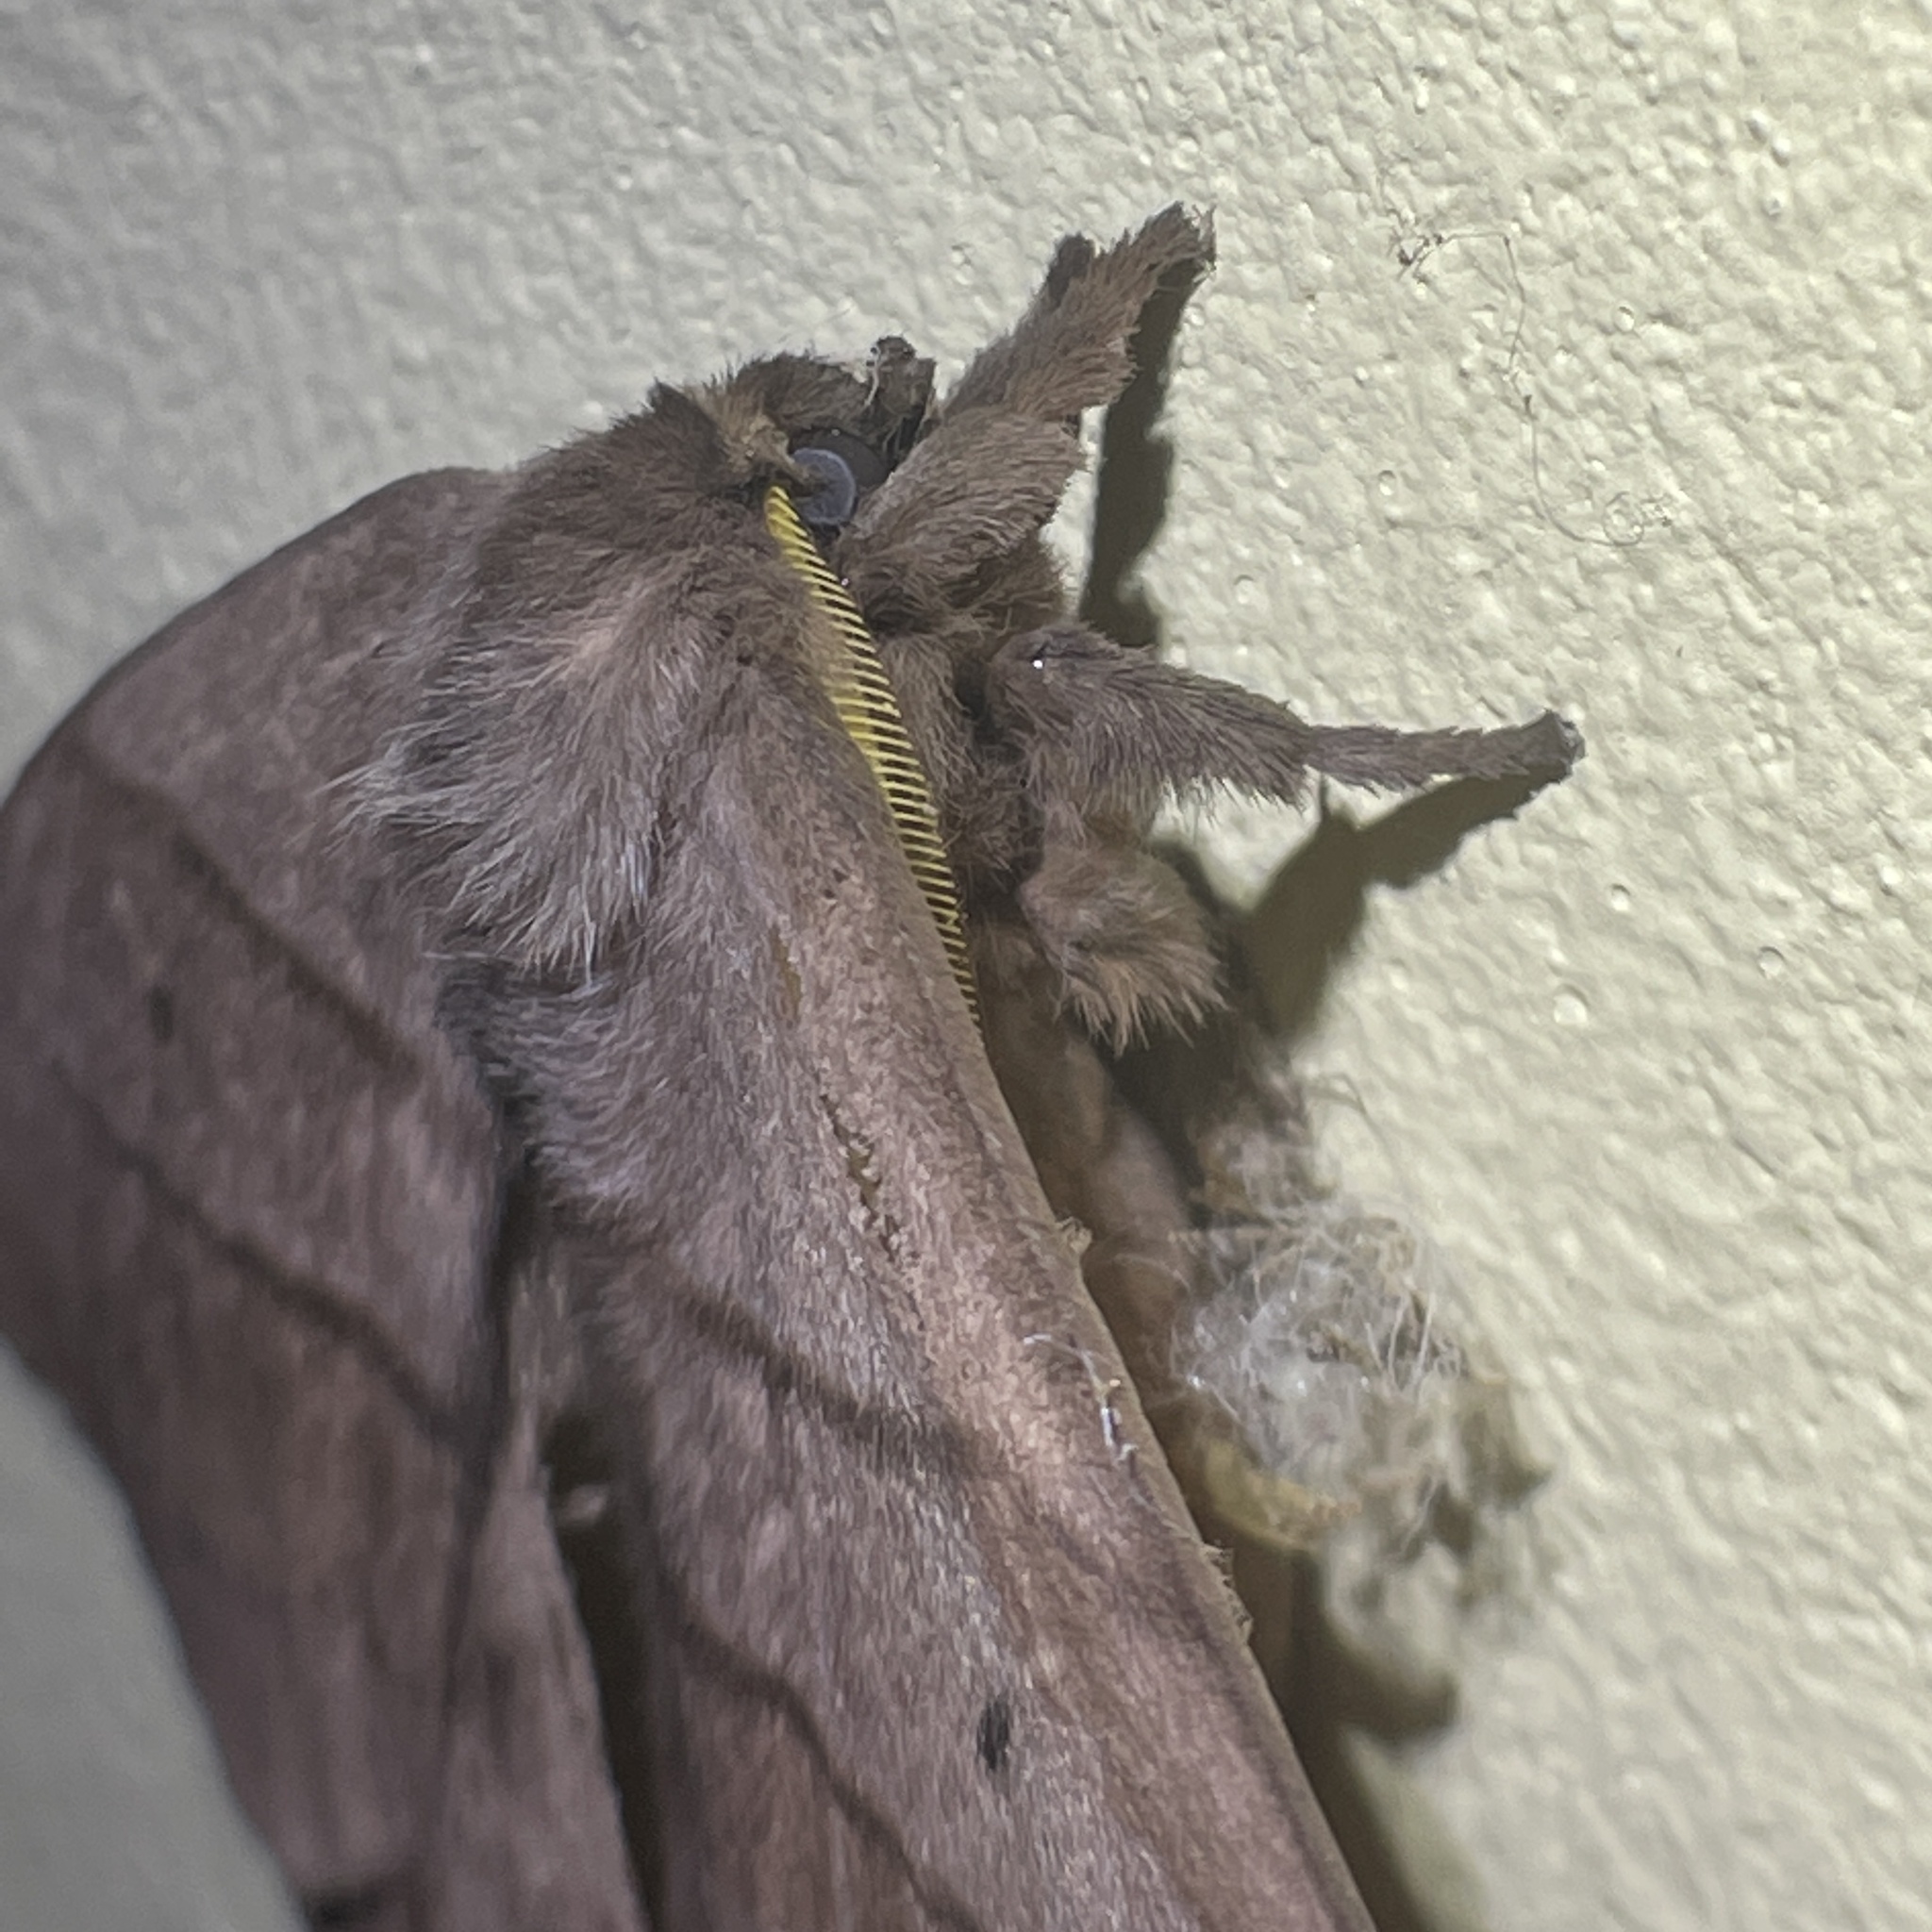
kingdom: Animalia
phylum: Arthropoda
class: Insecta
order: Lepidoptera
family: Saturniidae
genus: Periphoba
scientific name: Periphoba augur
